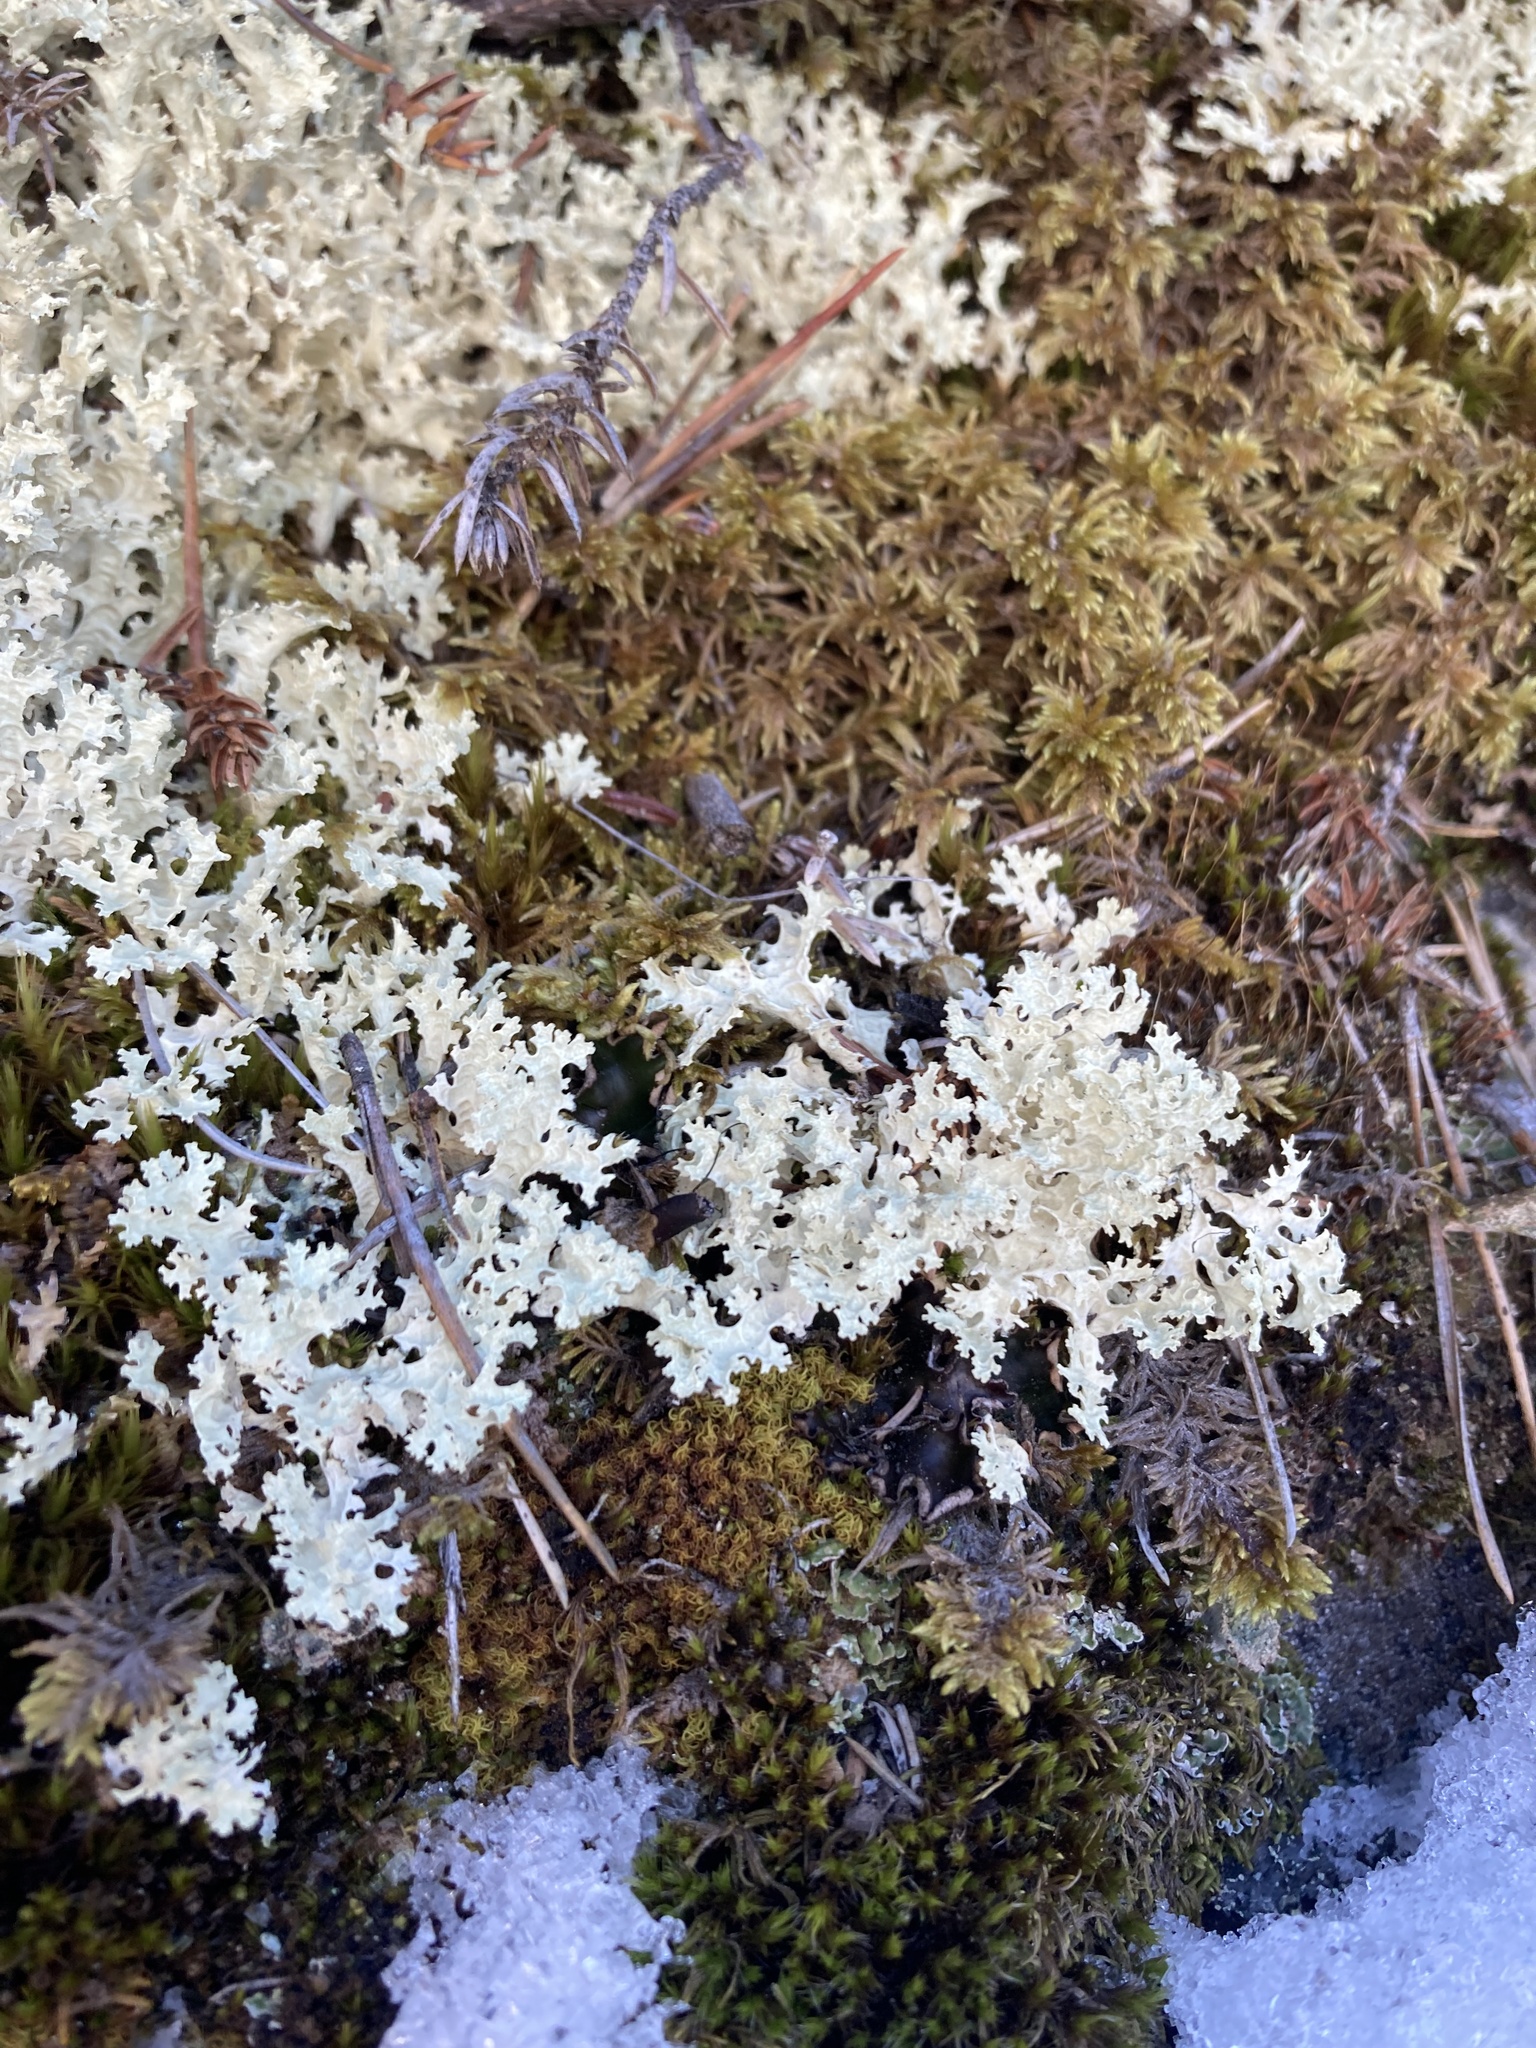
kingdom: Fungi
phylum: Ascomycota
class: Lecanoromycetes
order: Lecanorales
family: Parmeliaceae
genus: Nephromopsis
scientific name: Nephromopsis nivalis
